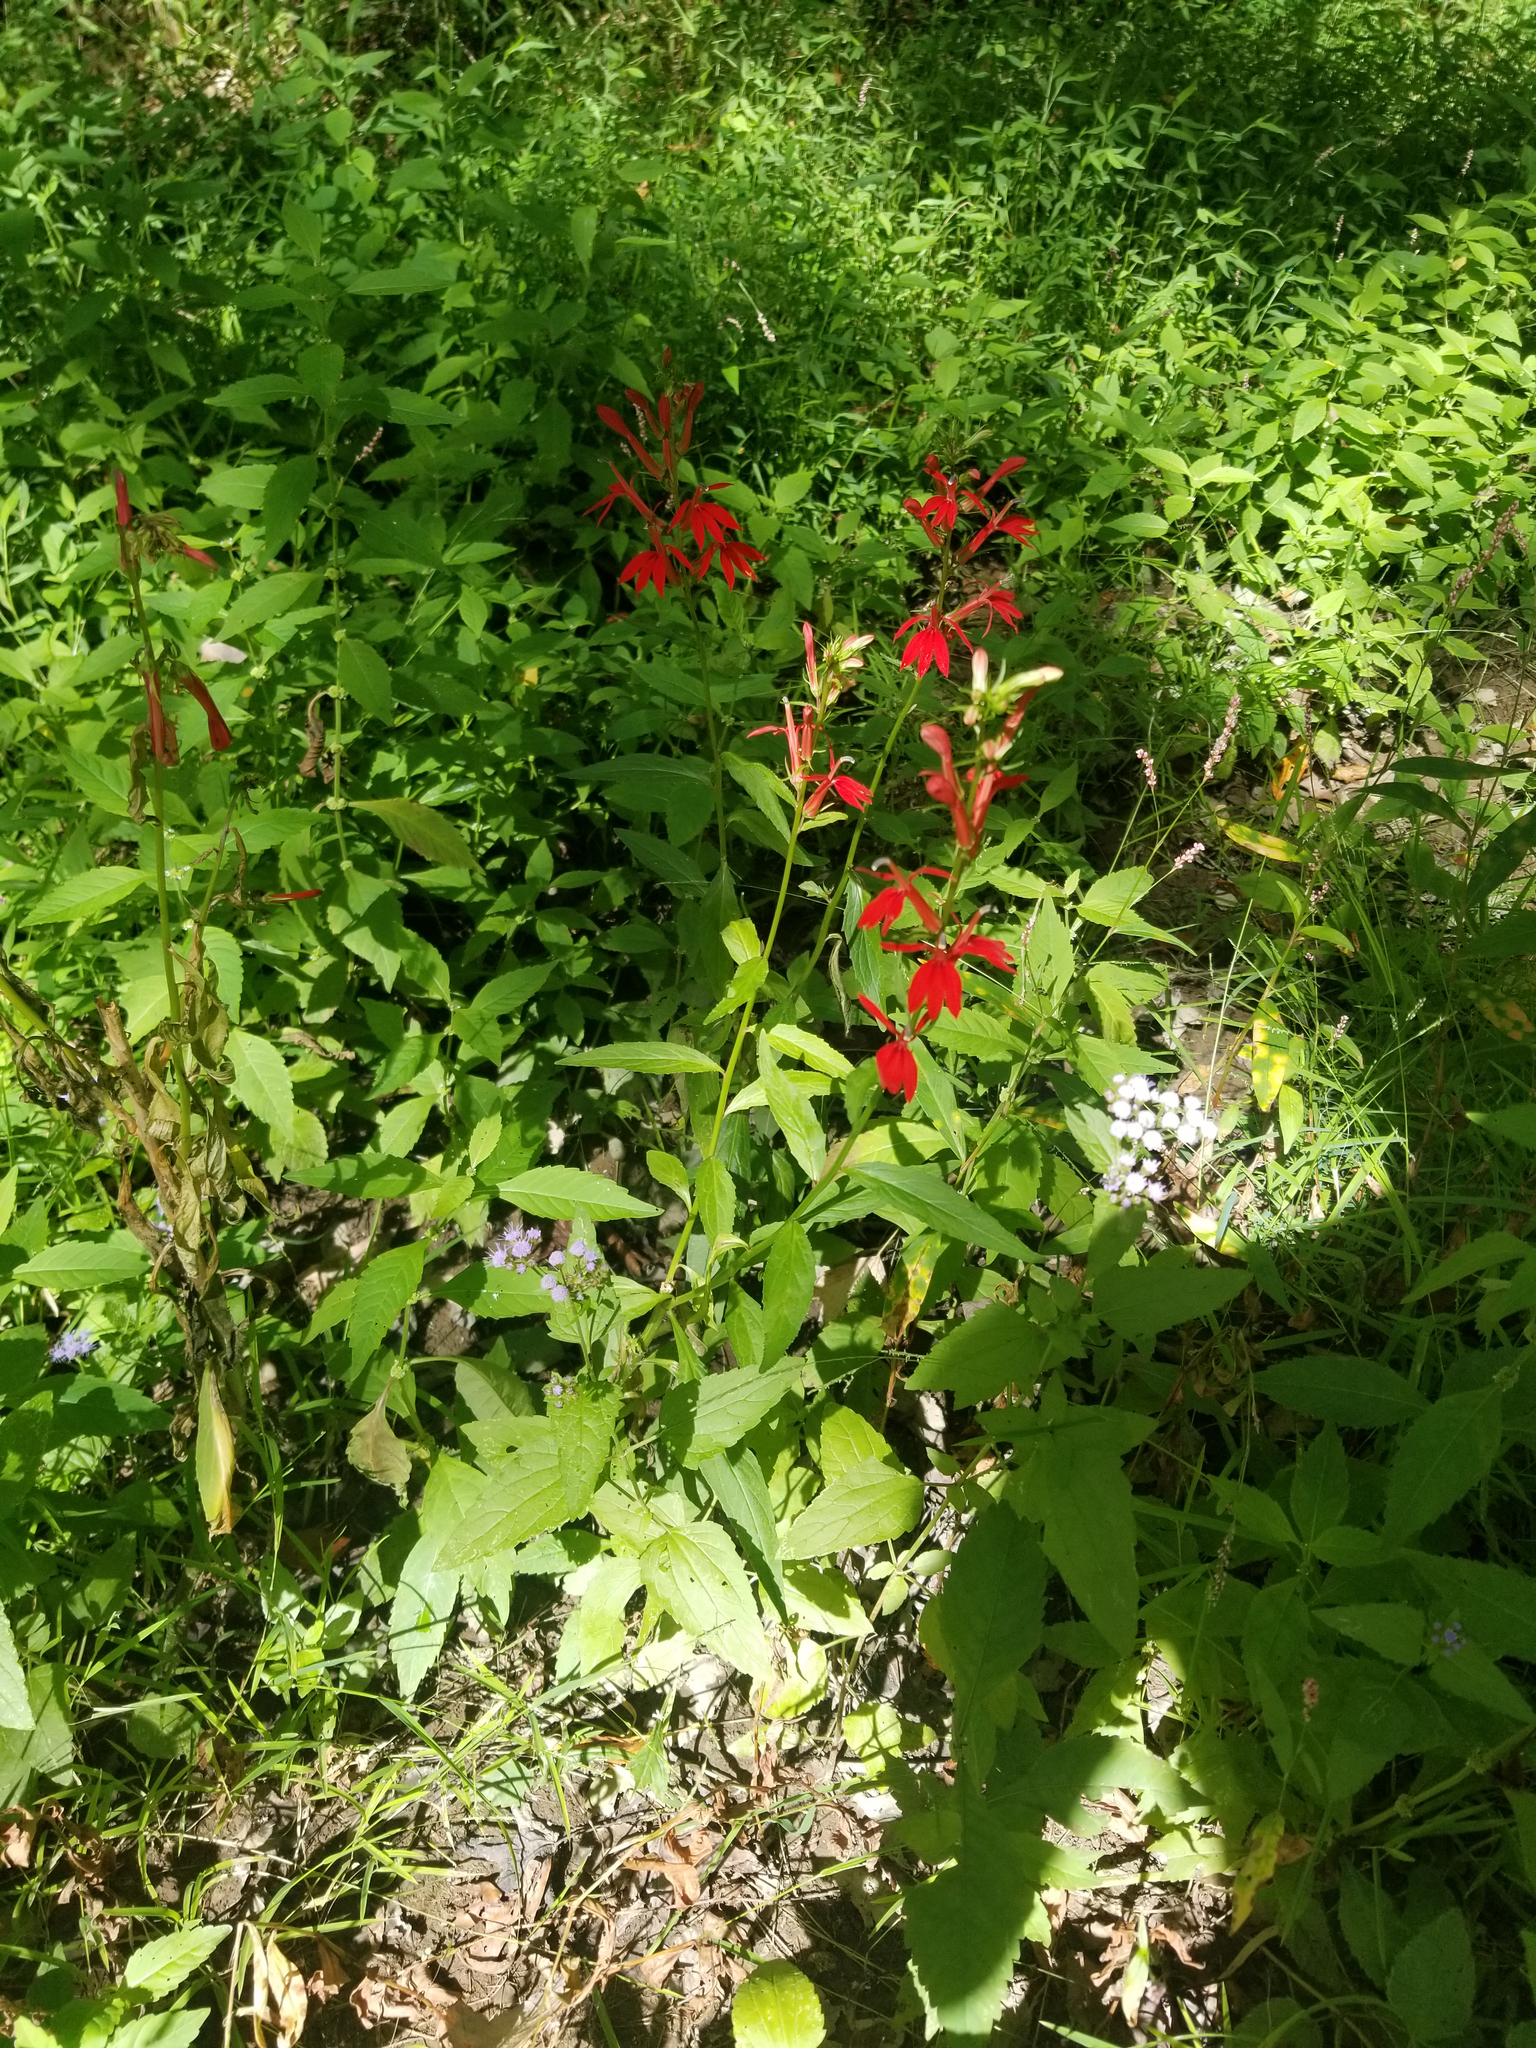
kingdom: Plantae
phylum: Tracheophyta
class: Magnoliopsida
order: Asterales
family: Campanulaceae
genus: Lobelia
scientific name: Lobelia cardinalis
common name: Cardinal flower
